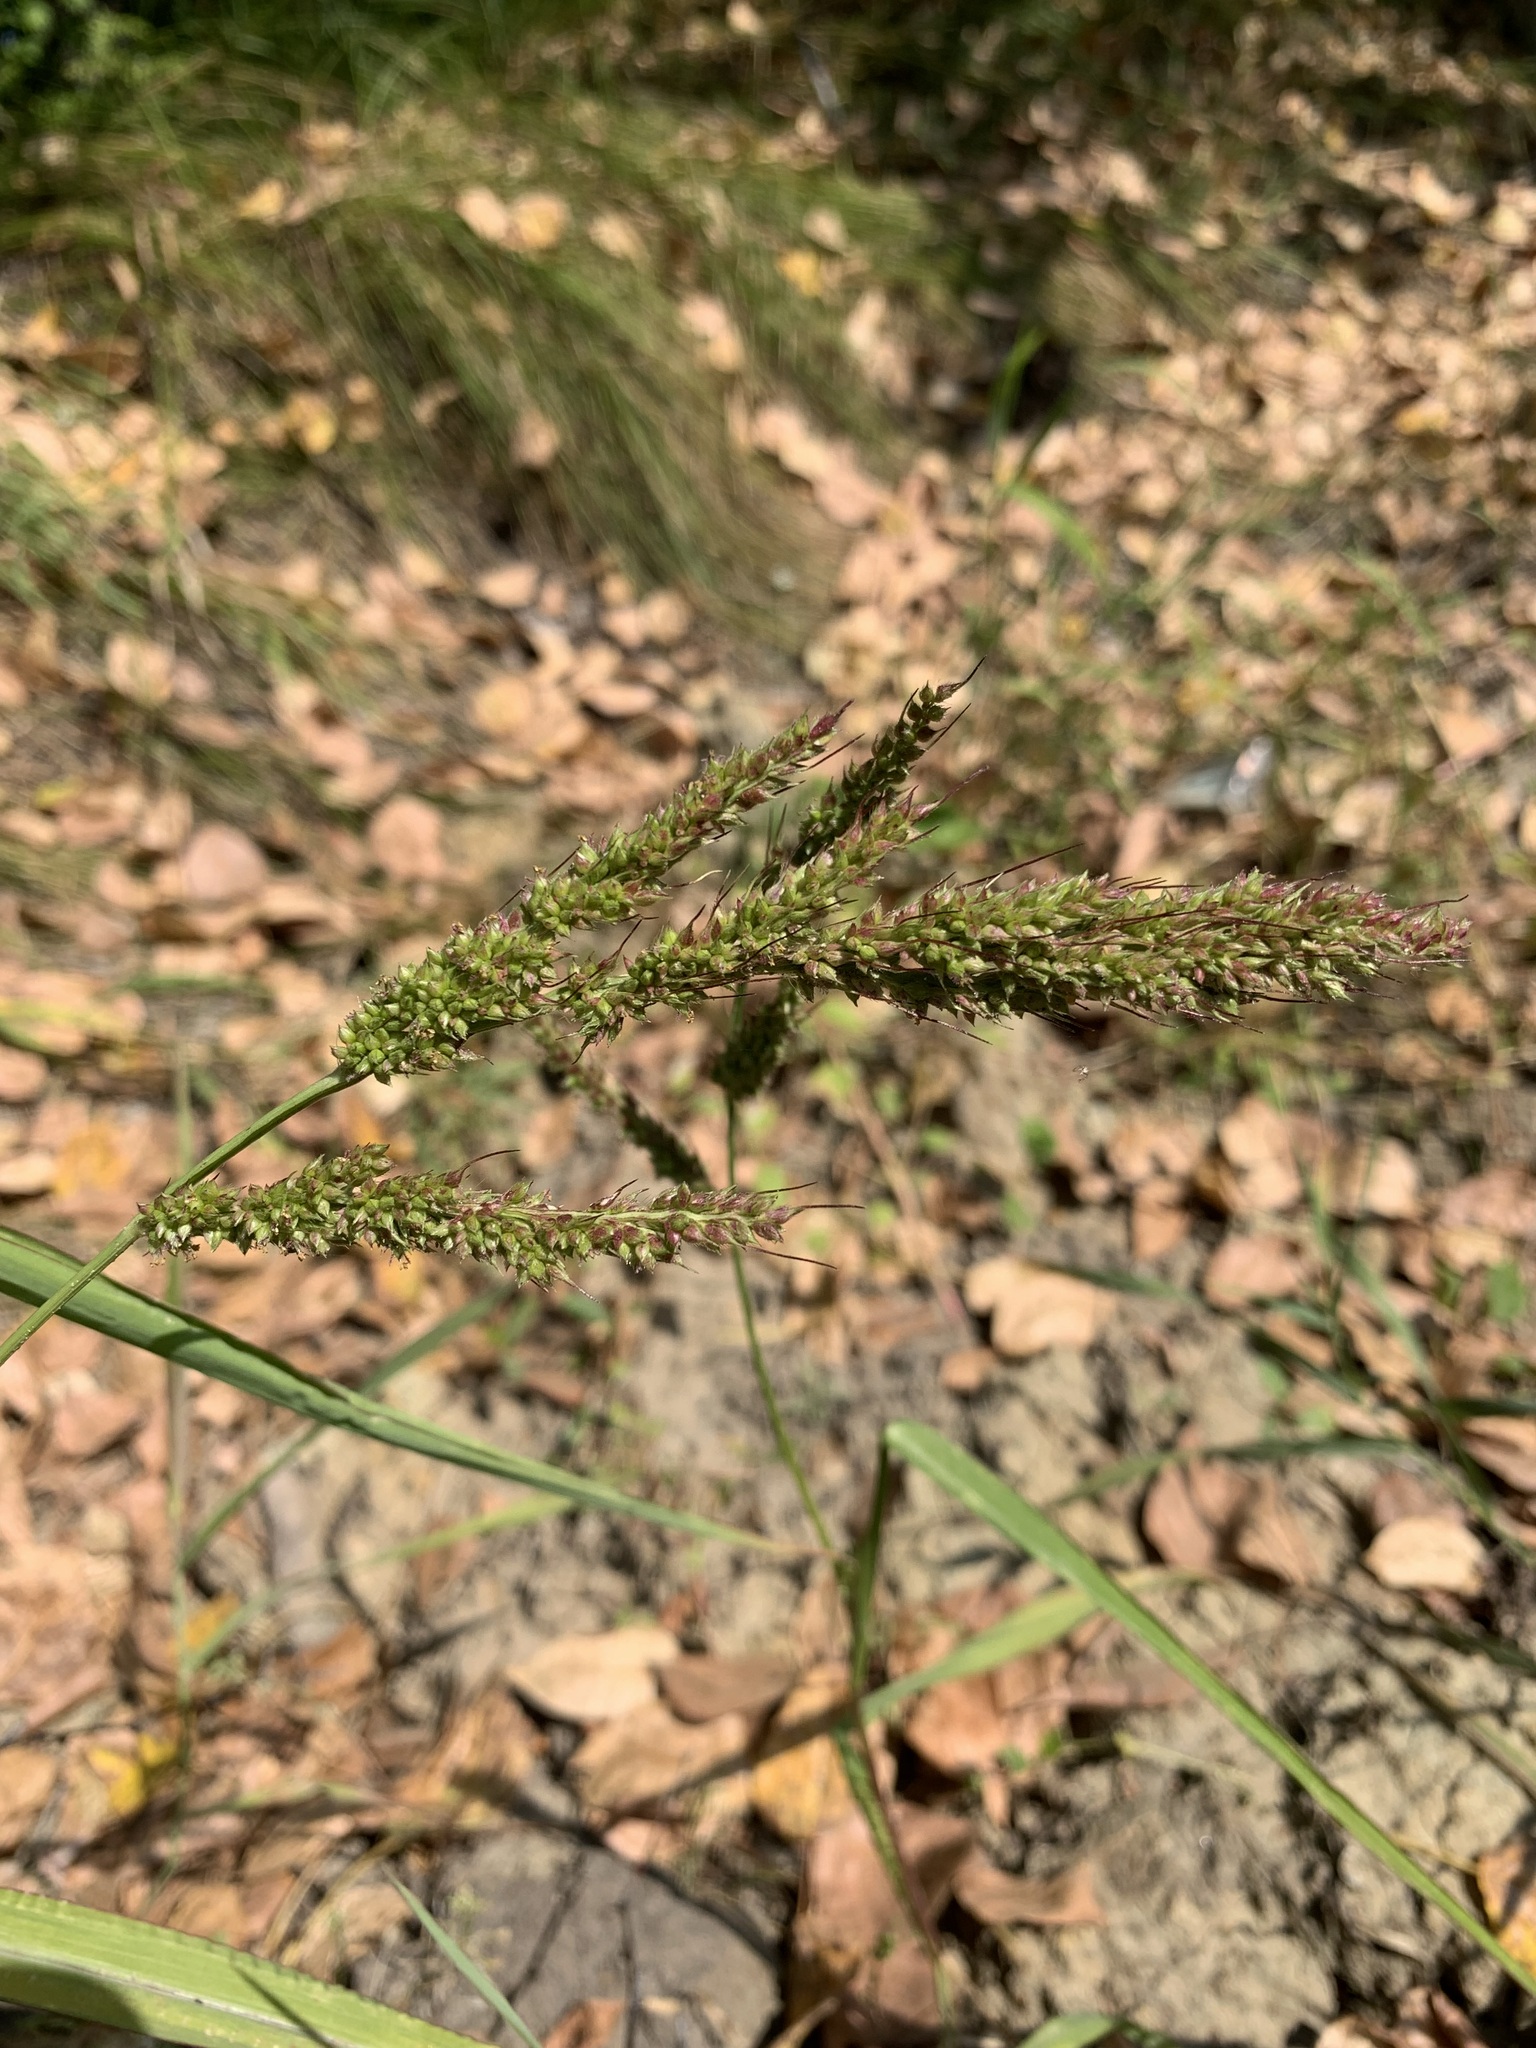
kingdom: Plantae
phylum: Tracheophyta
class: Liliopsida
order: Poales
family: Poaceae
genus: Echinochloa
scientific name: Echinochloa crus-galli
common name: Cockspur
